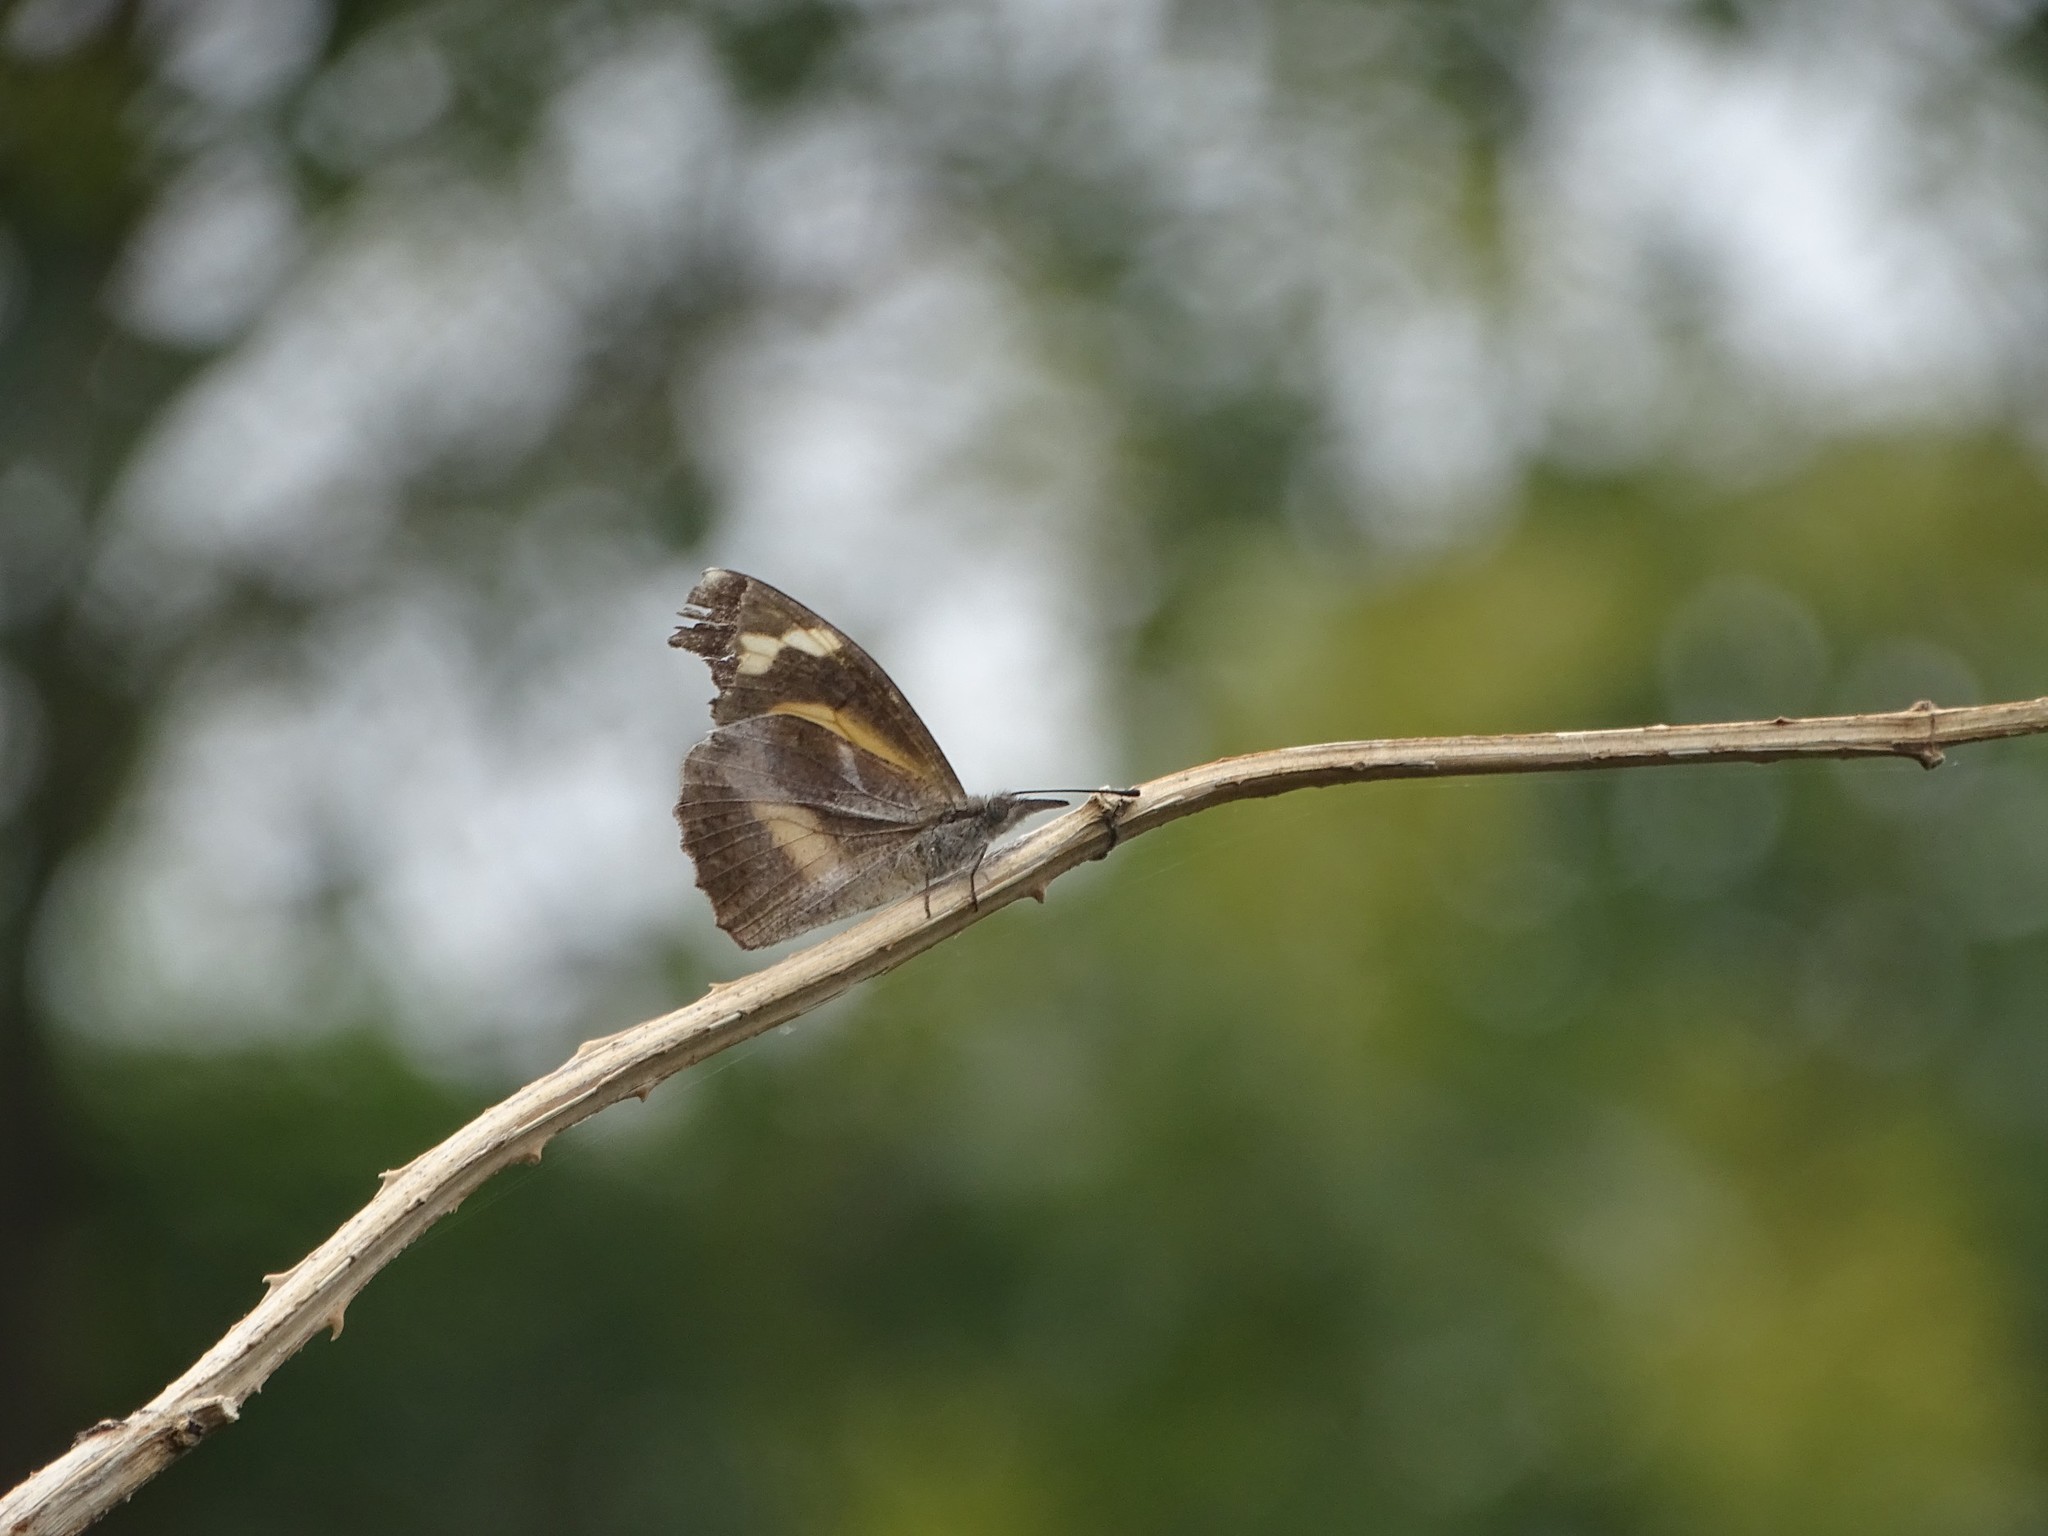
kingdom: Animalia
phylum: Arthropoda
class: Insecta
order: Lepidoptera
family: Nymphalidae
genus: Libythea
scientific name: Libythea myrrha
